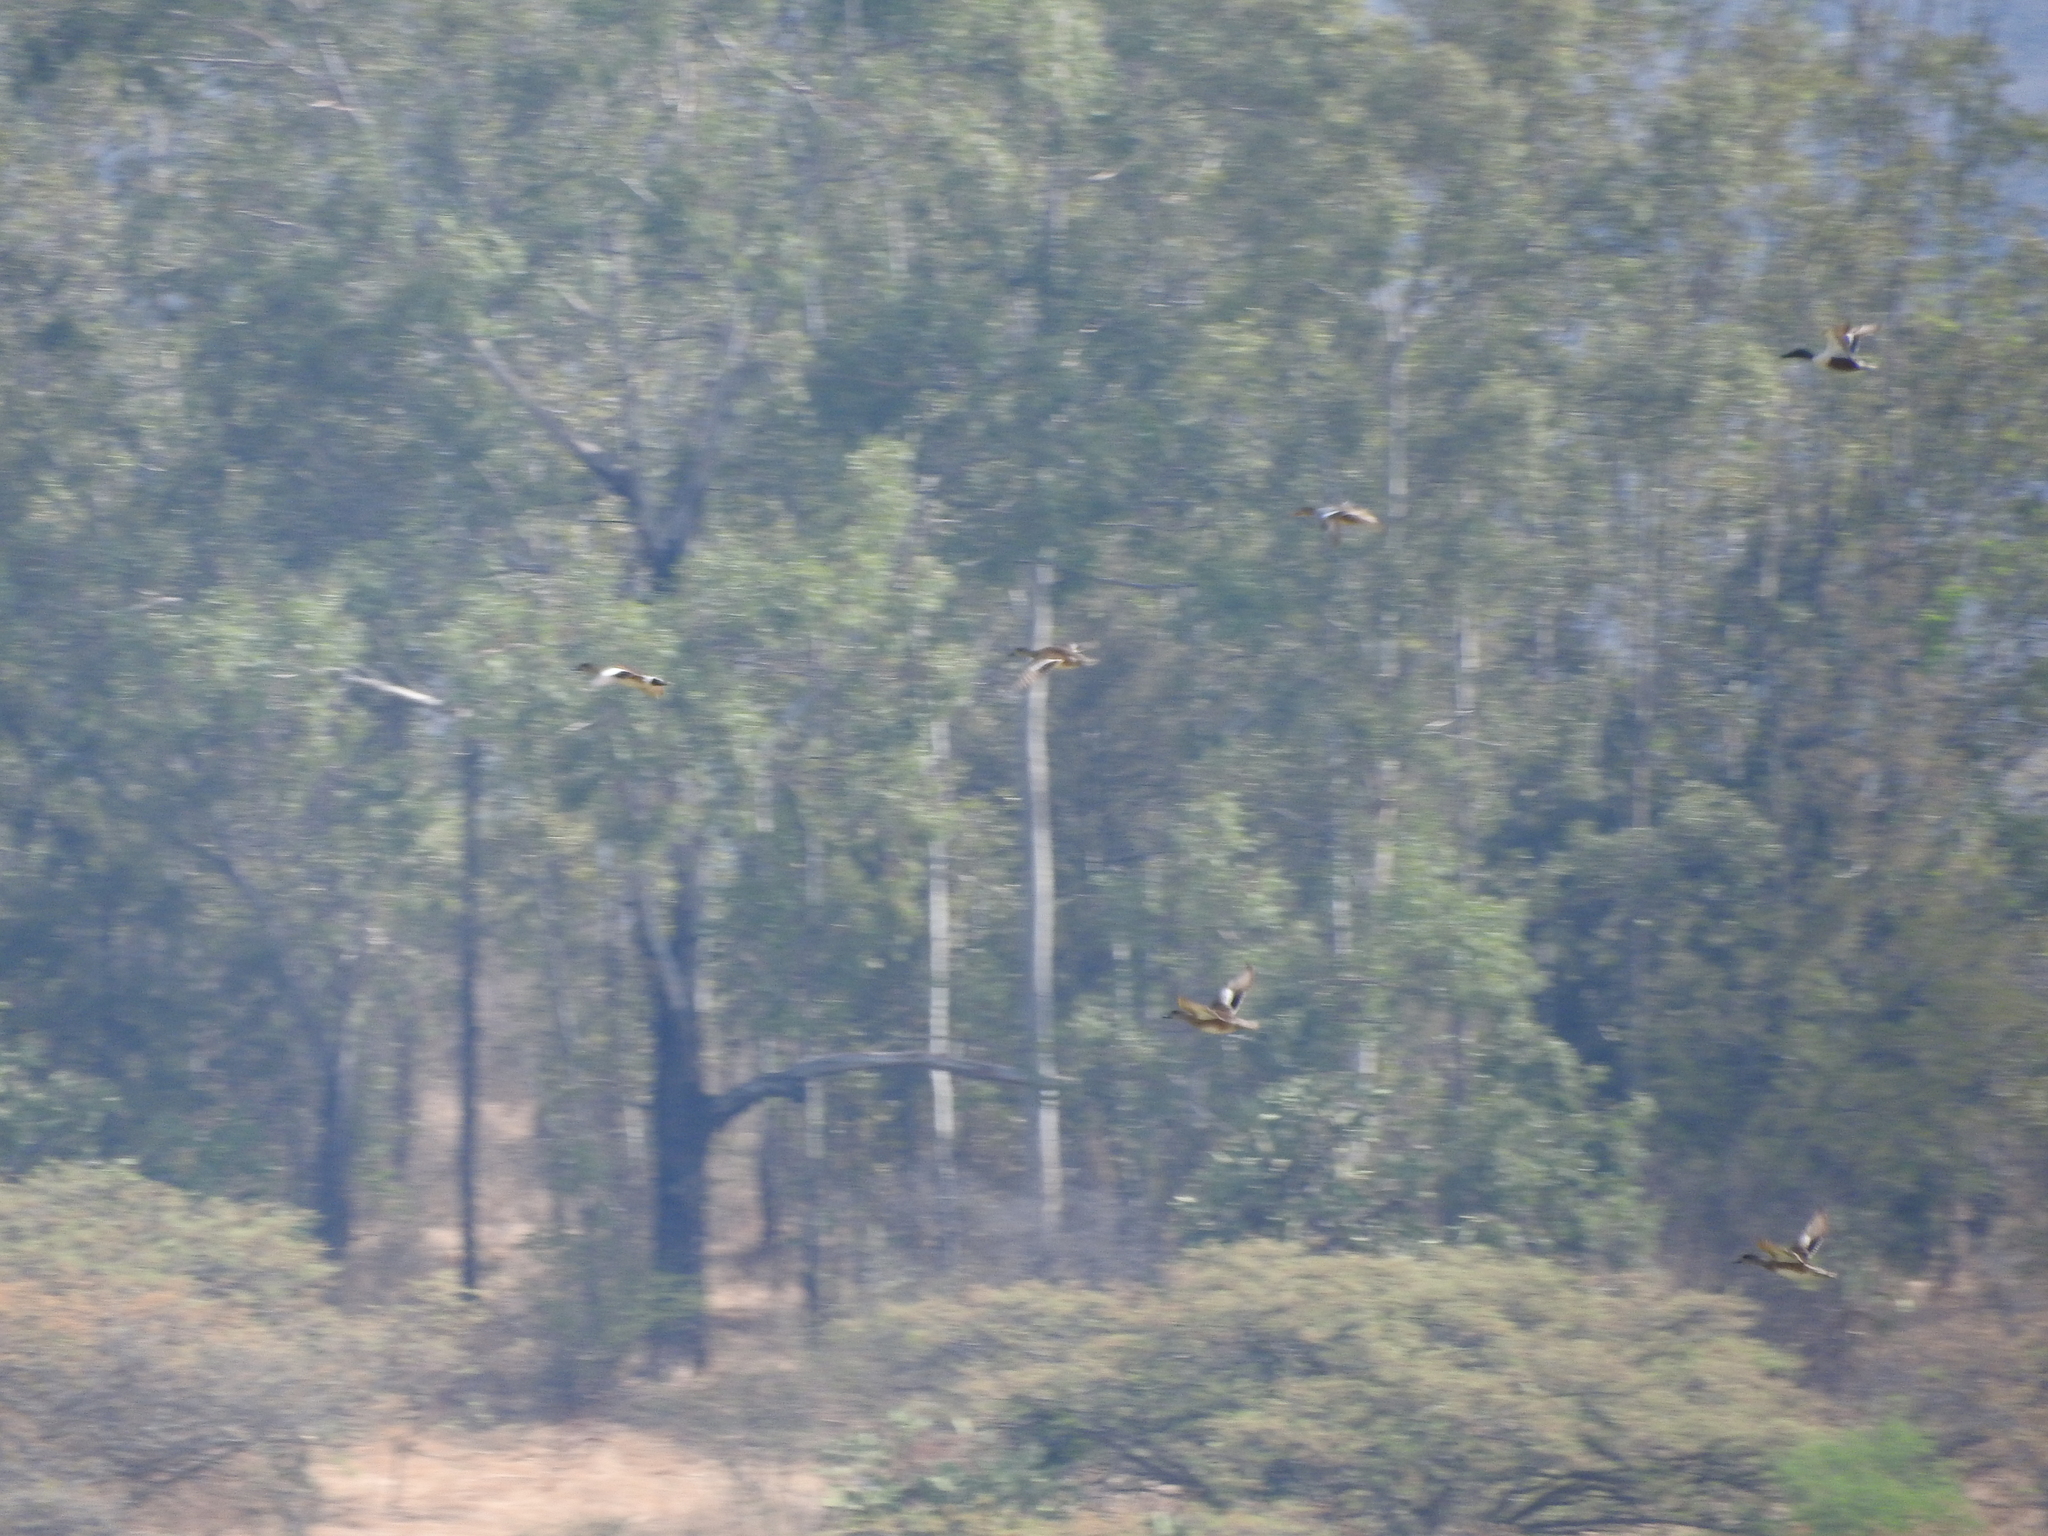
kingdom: Animalia
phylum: Chordata
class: Aves
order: Anseriformes
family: Anatidae
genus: Spatula
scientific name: Spatula clypeata
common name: Northern shoveler
